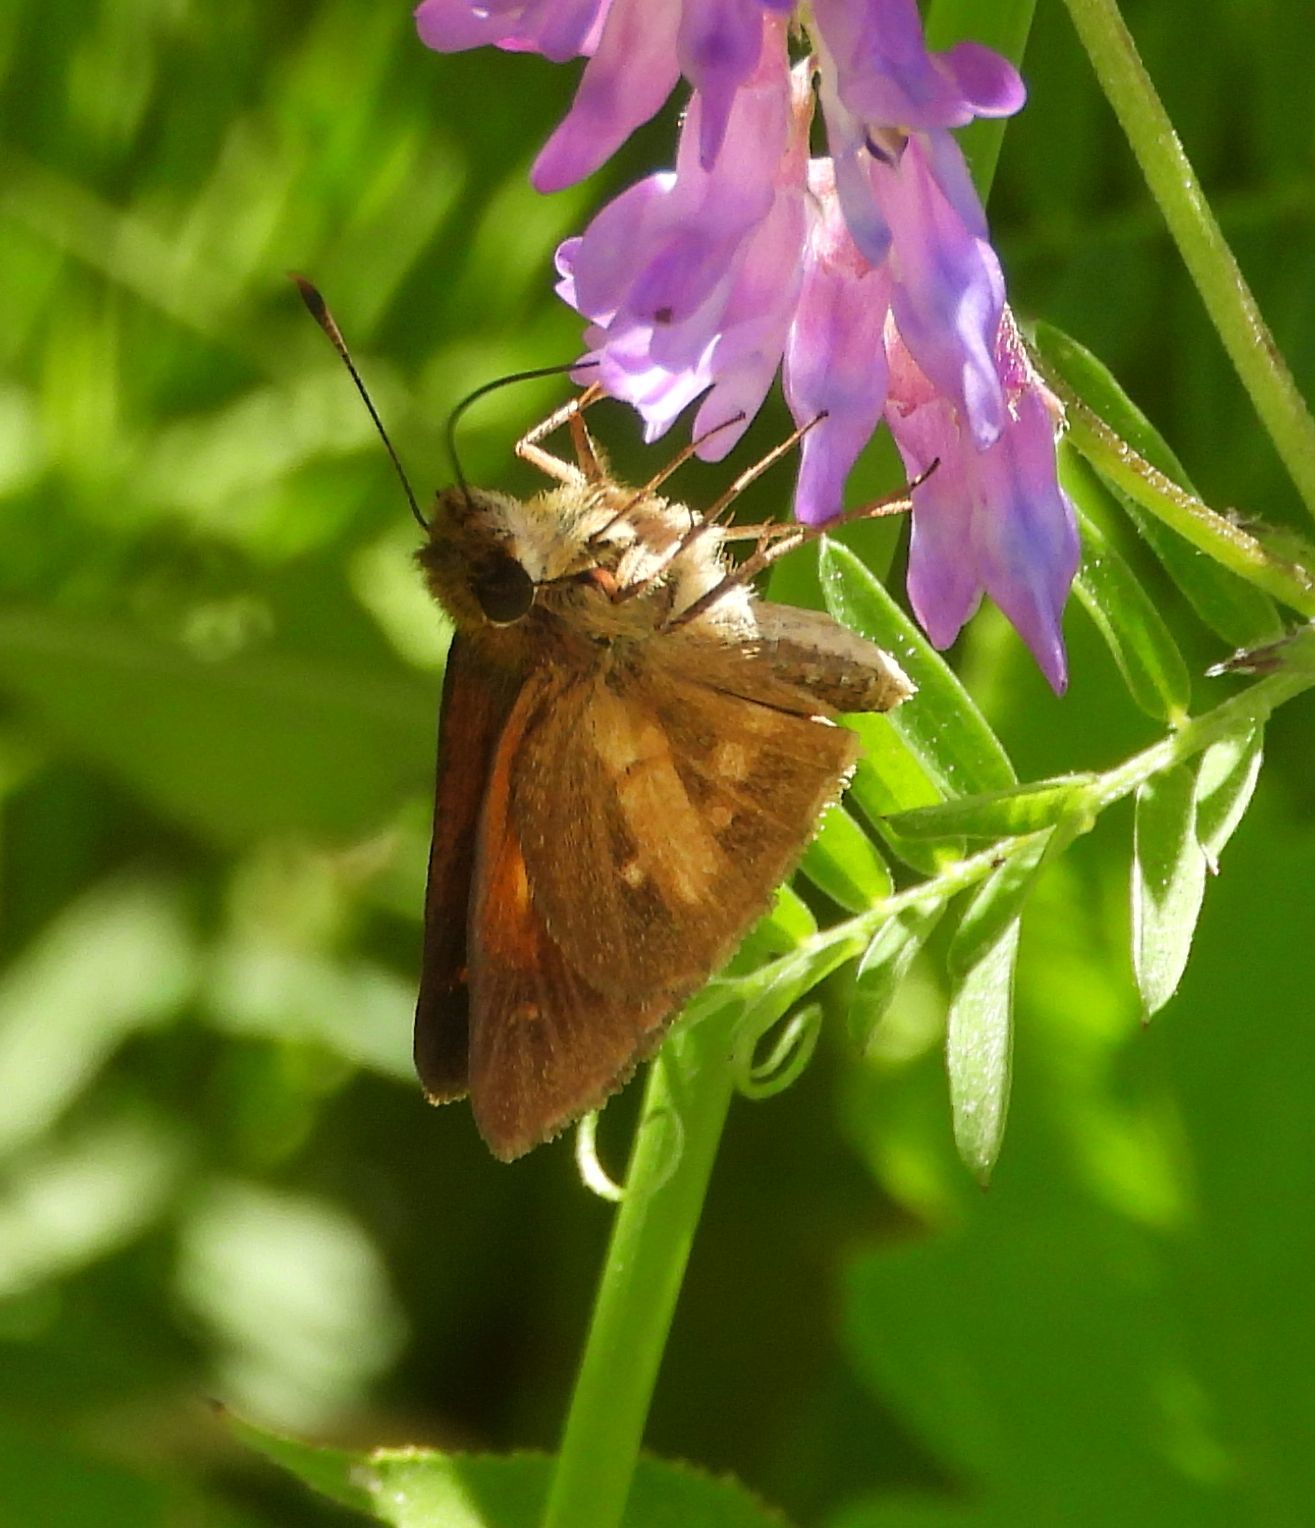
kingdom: Animalia
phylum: Arthropoda
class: Insecta
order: Lepidoptera
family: Hesperiidae
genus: Poanes
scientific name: Poanes viator
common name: Broad-winged skipper
